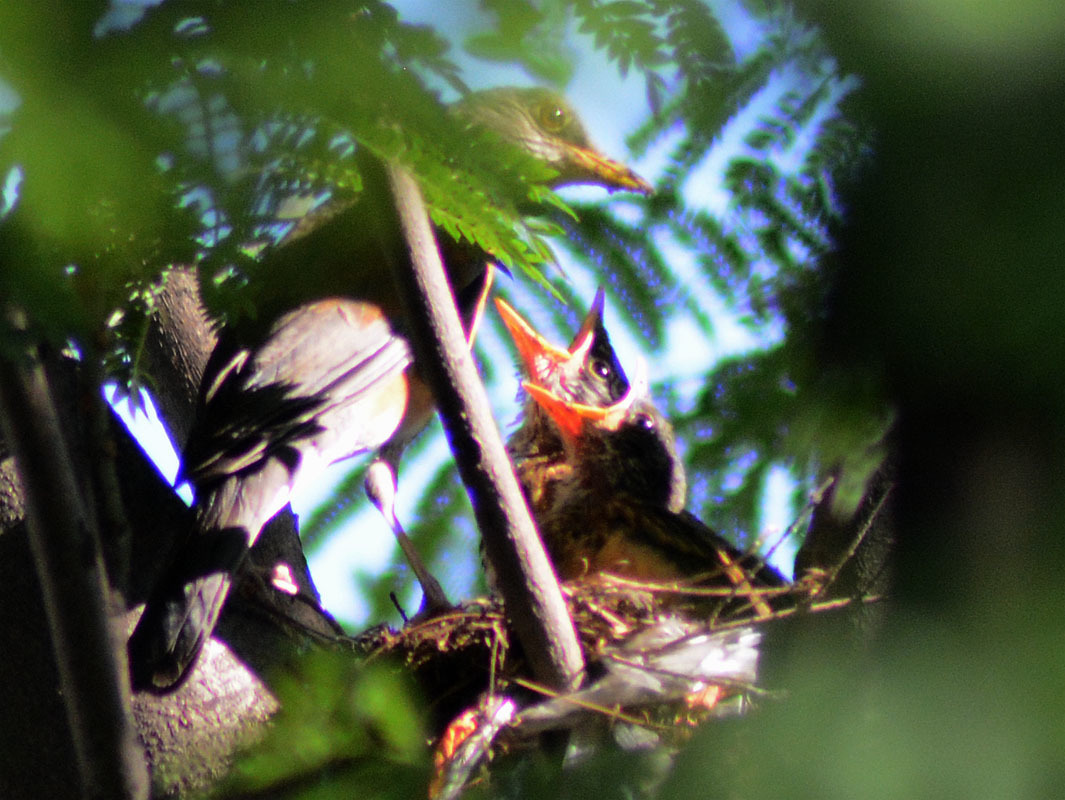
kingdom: Animalia
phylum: Chordata
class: Aves
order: Passeriformes
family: Turdidae
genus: Turdus
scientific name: Turdus rufopalliatus
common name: Rufous-backed robin
